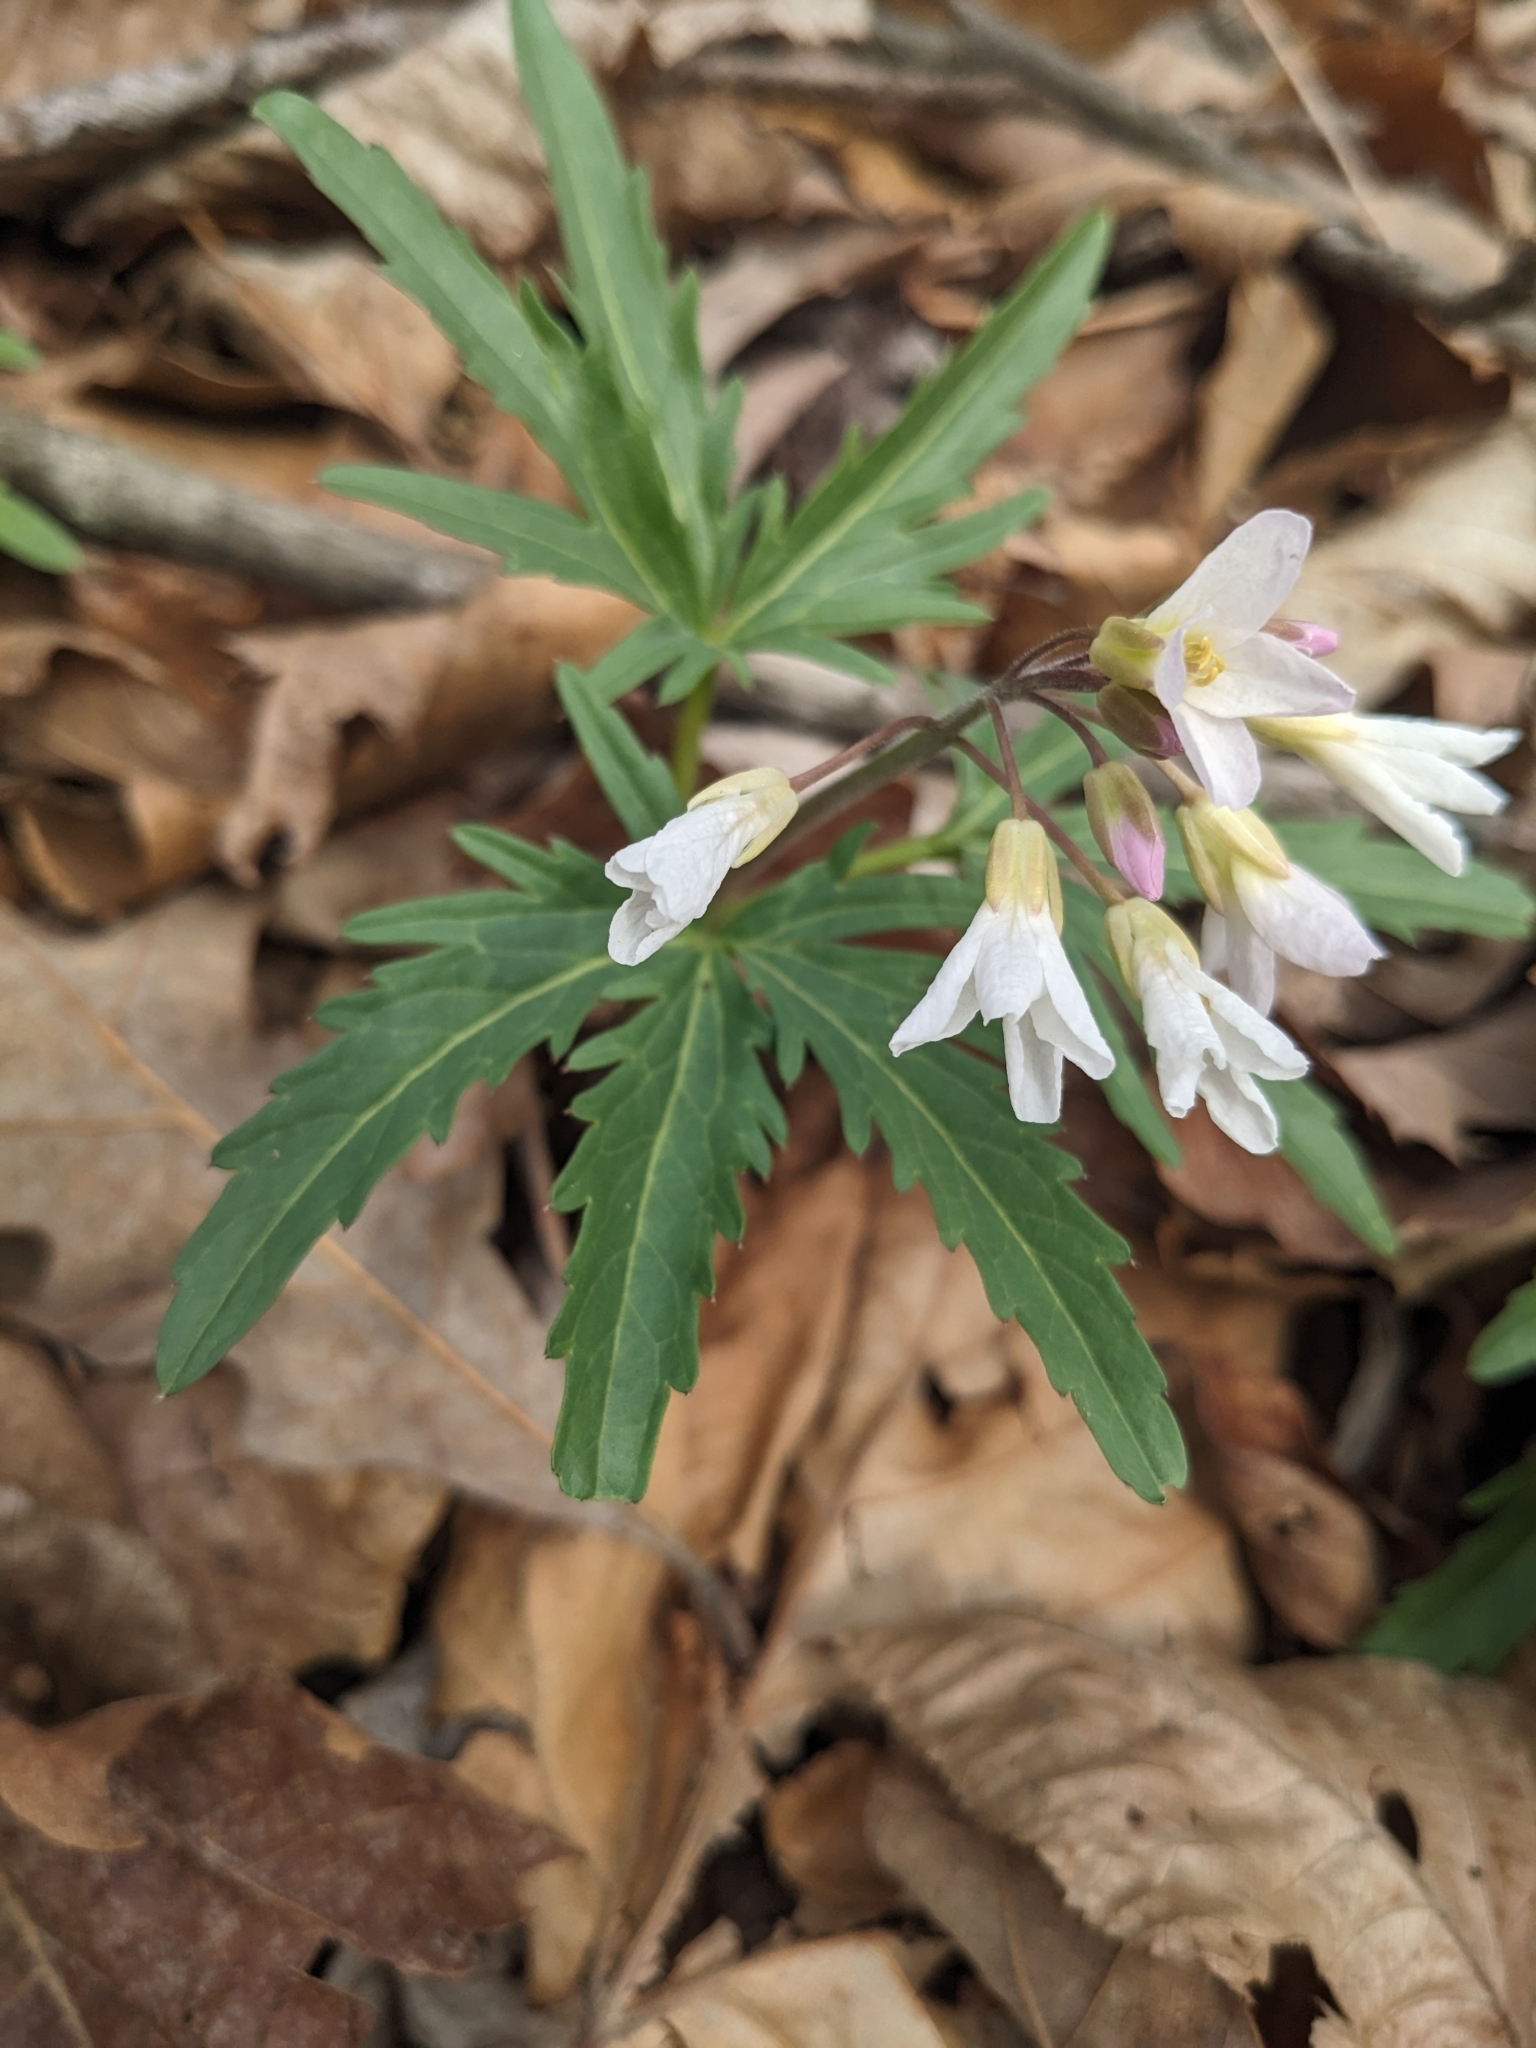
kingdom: Plantae
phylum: Tracheophyta
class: Magnoliopsida
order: Brassicales
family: Brassicaceae
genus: Cardamine
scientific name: Cardamine concatenata
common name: Cut-leaf toothcup
